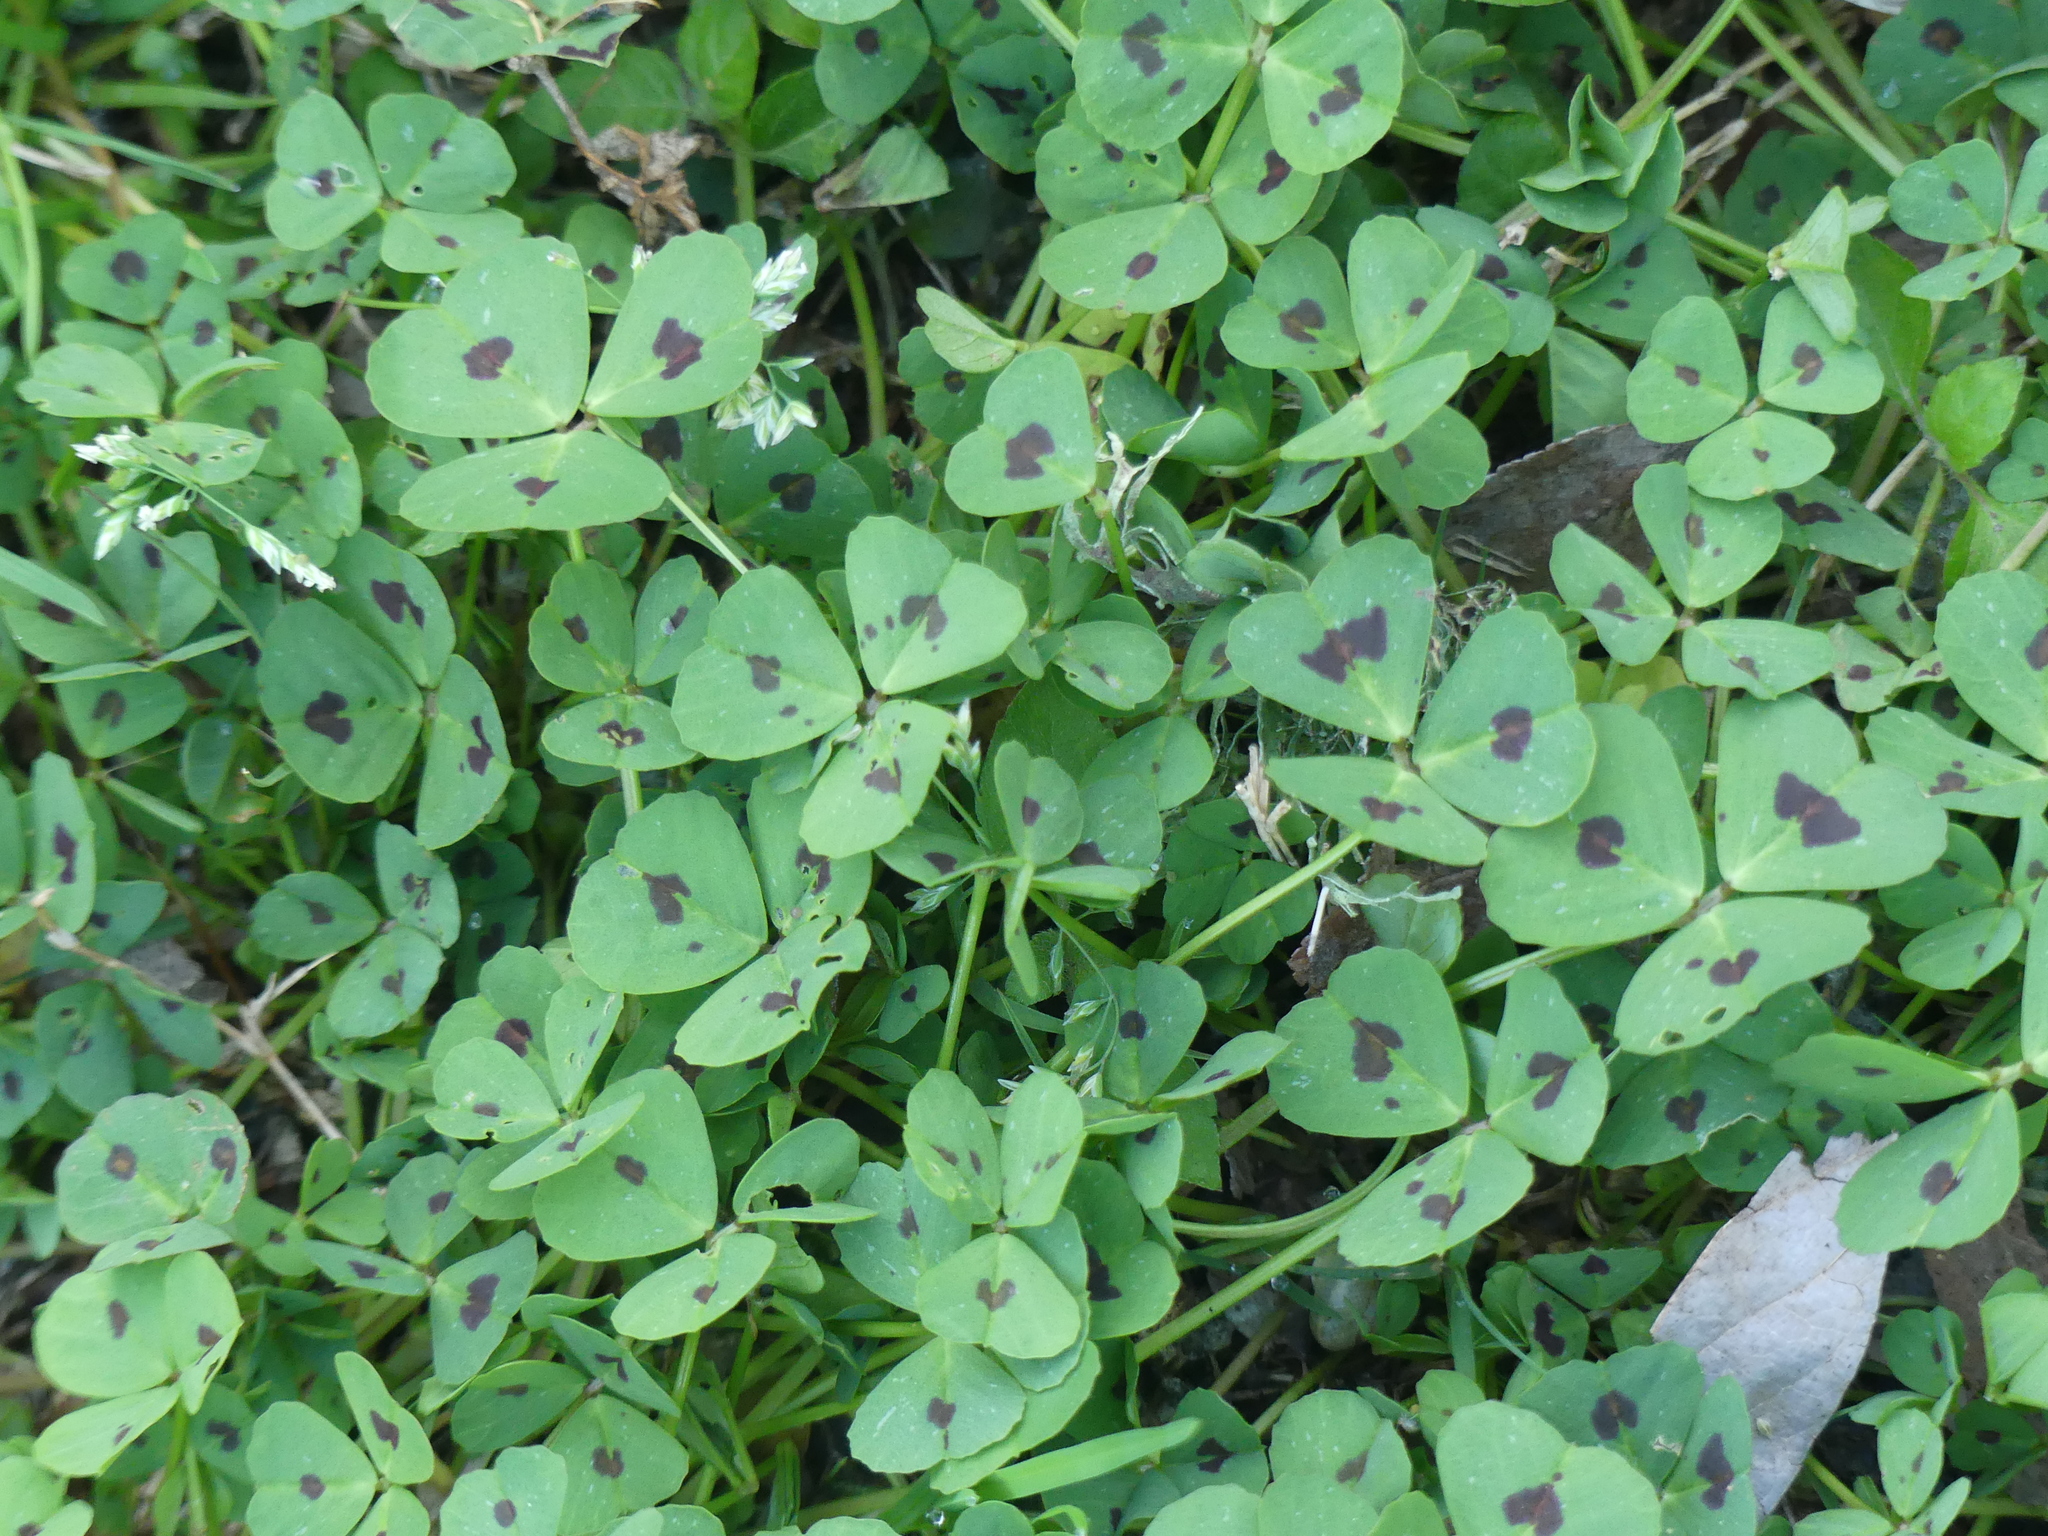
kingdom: Plantae
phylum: Tracheophyta
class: Magnoliopsida
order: Fabales
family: Fabaceae
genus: Medicago
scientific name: Medicago arabica
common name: Spotted medick
